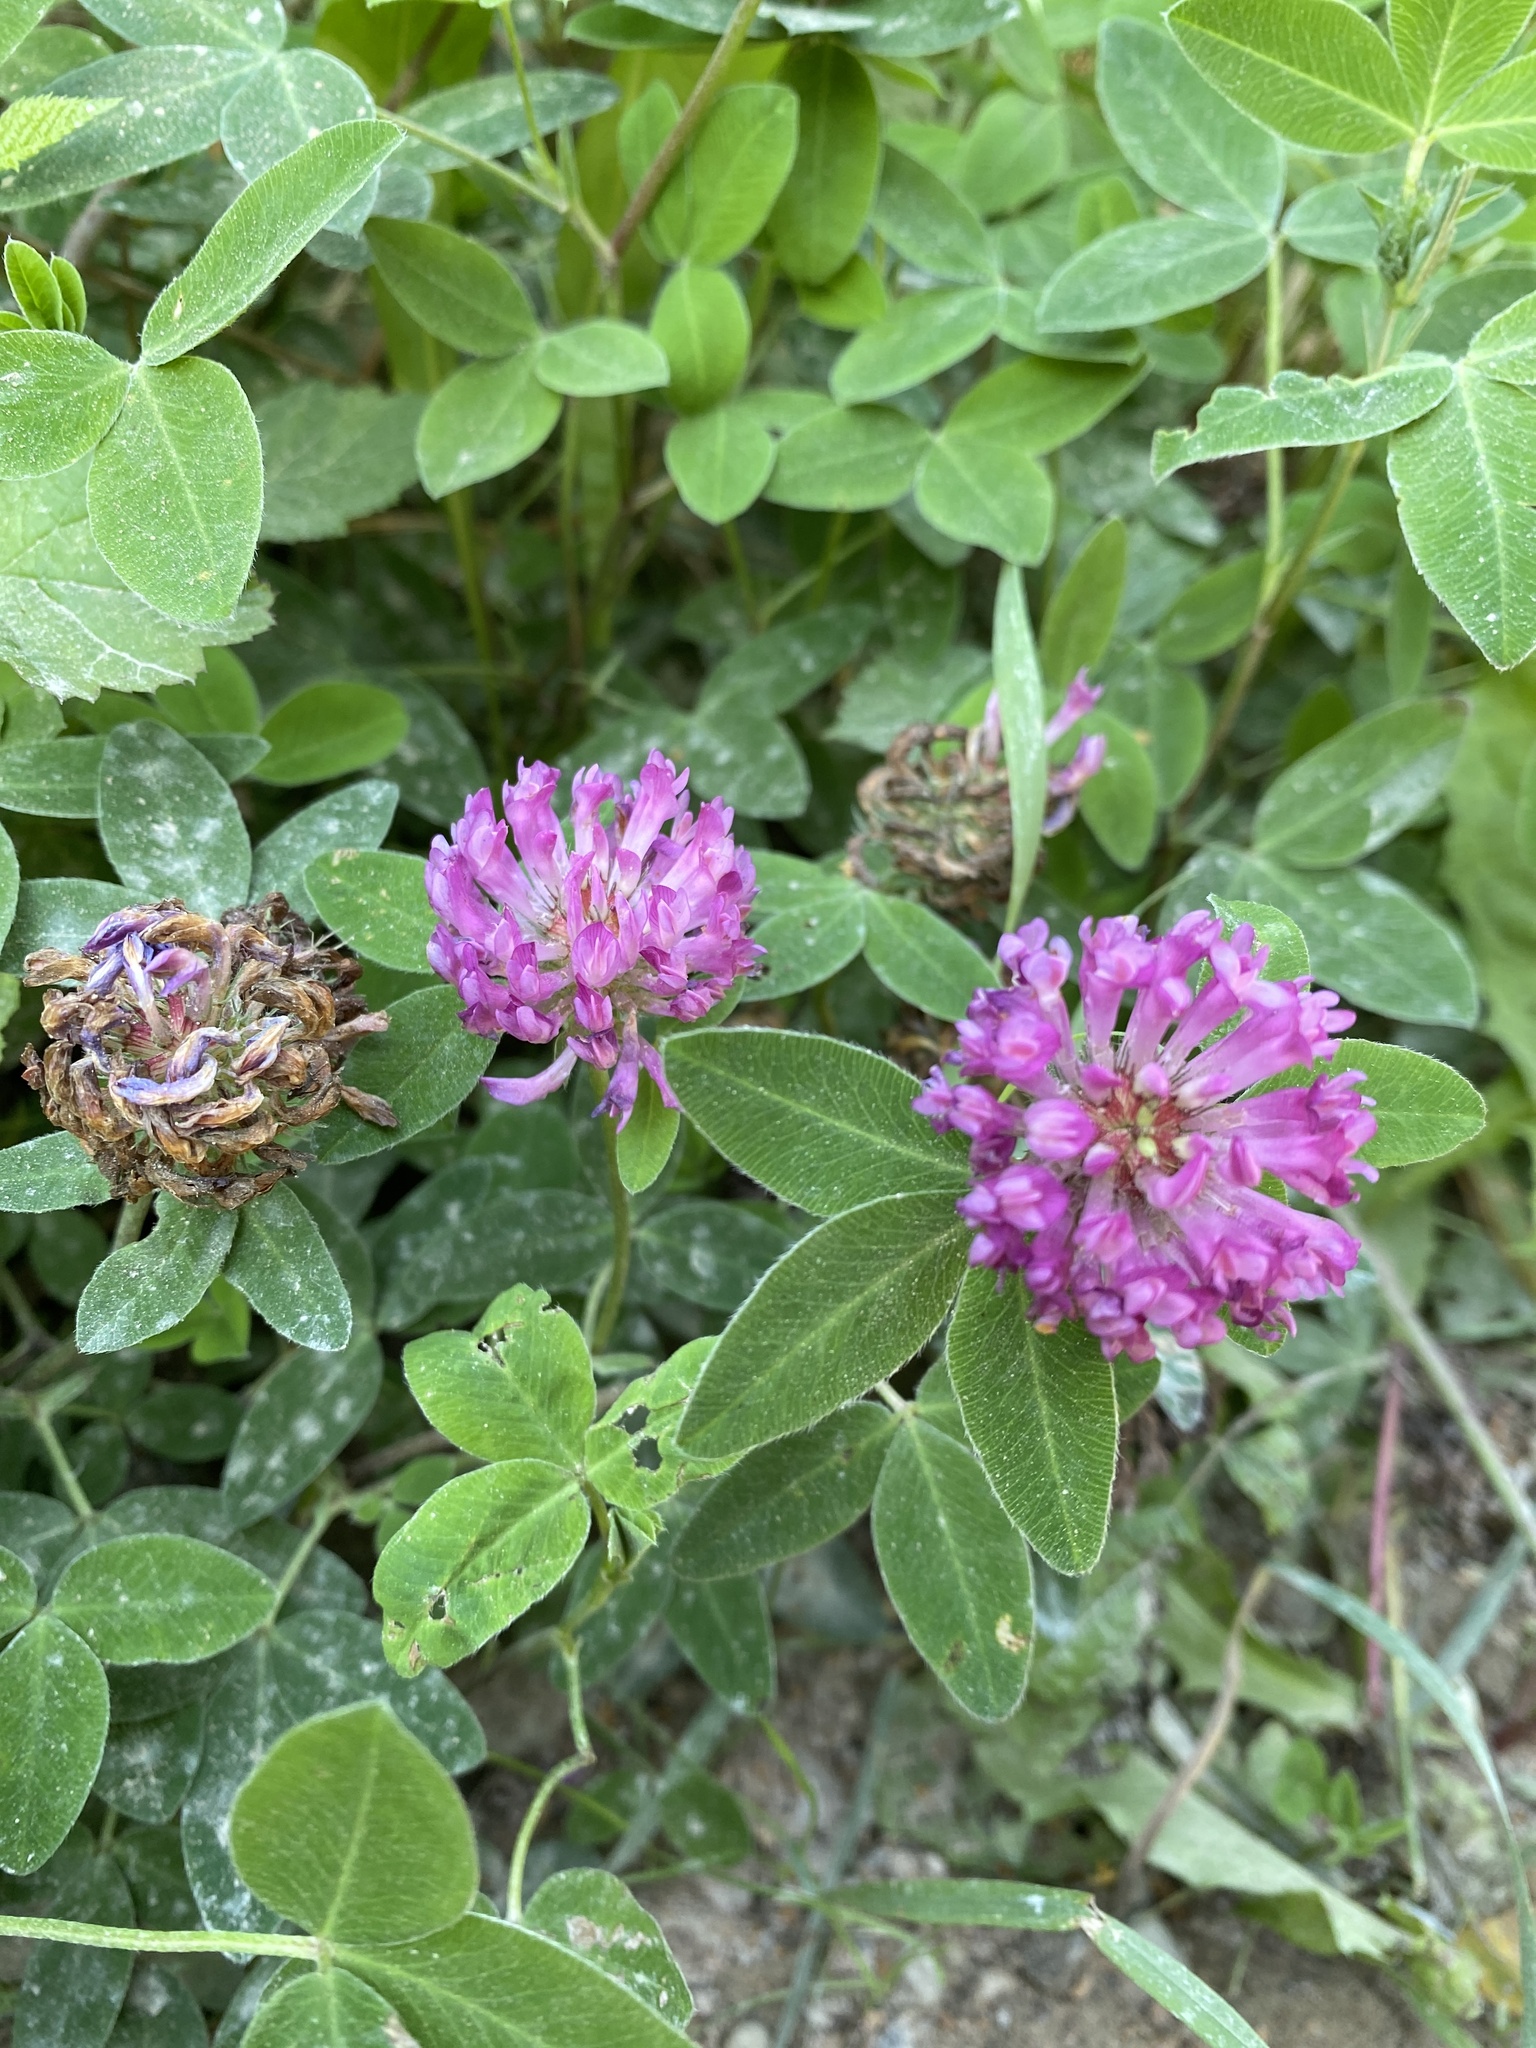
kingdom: Plantae
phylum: Tracheophyta
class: Magnoliopsida
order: Fabales
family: Fabaceae
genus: Trifolium
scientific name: Trifolium medium
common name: Zigzag clover
